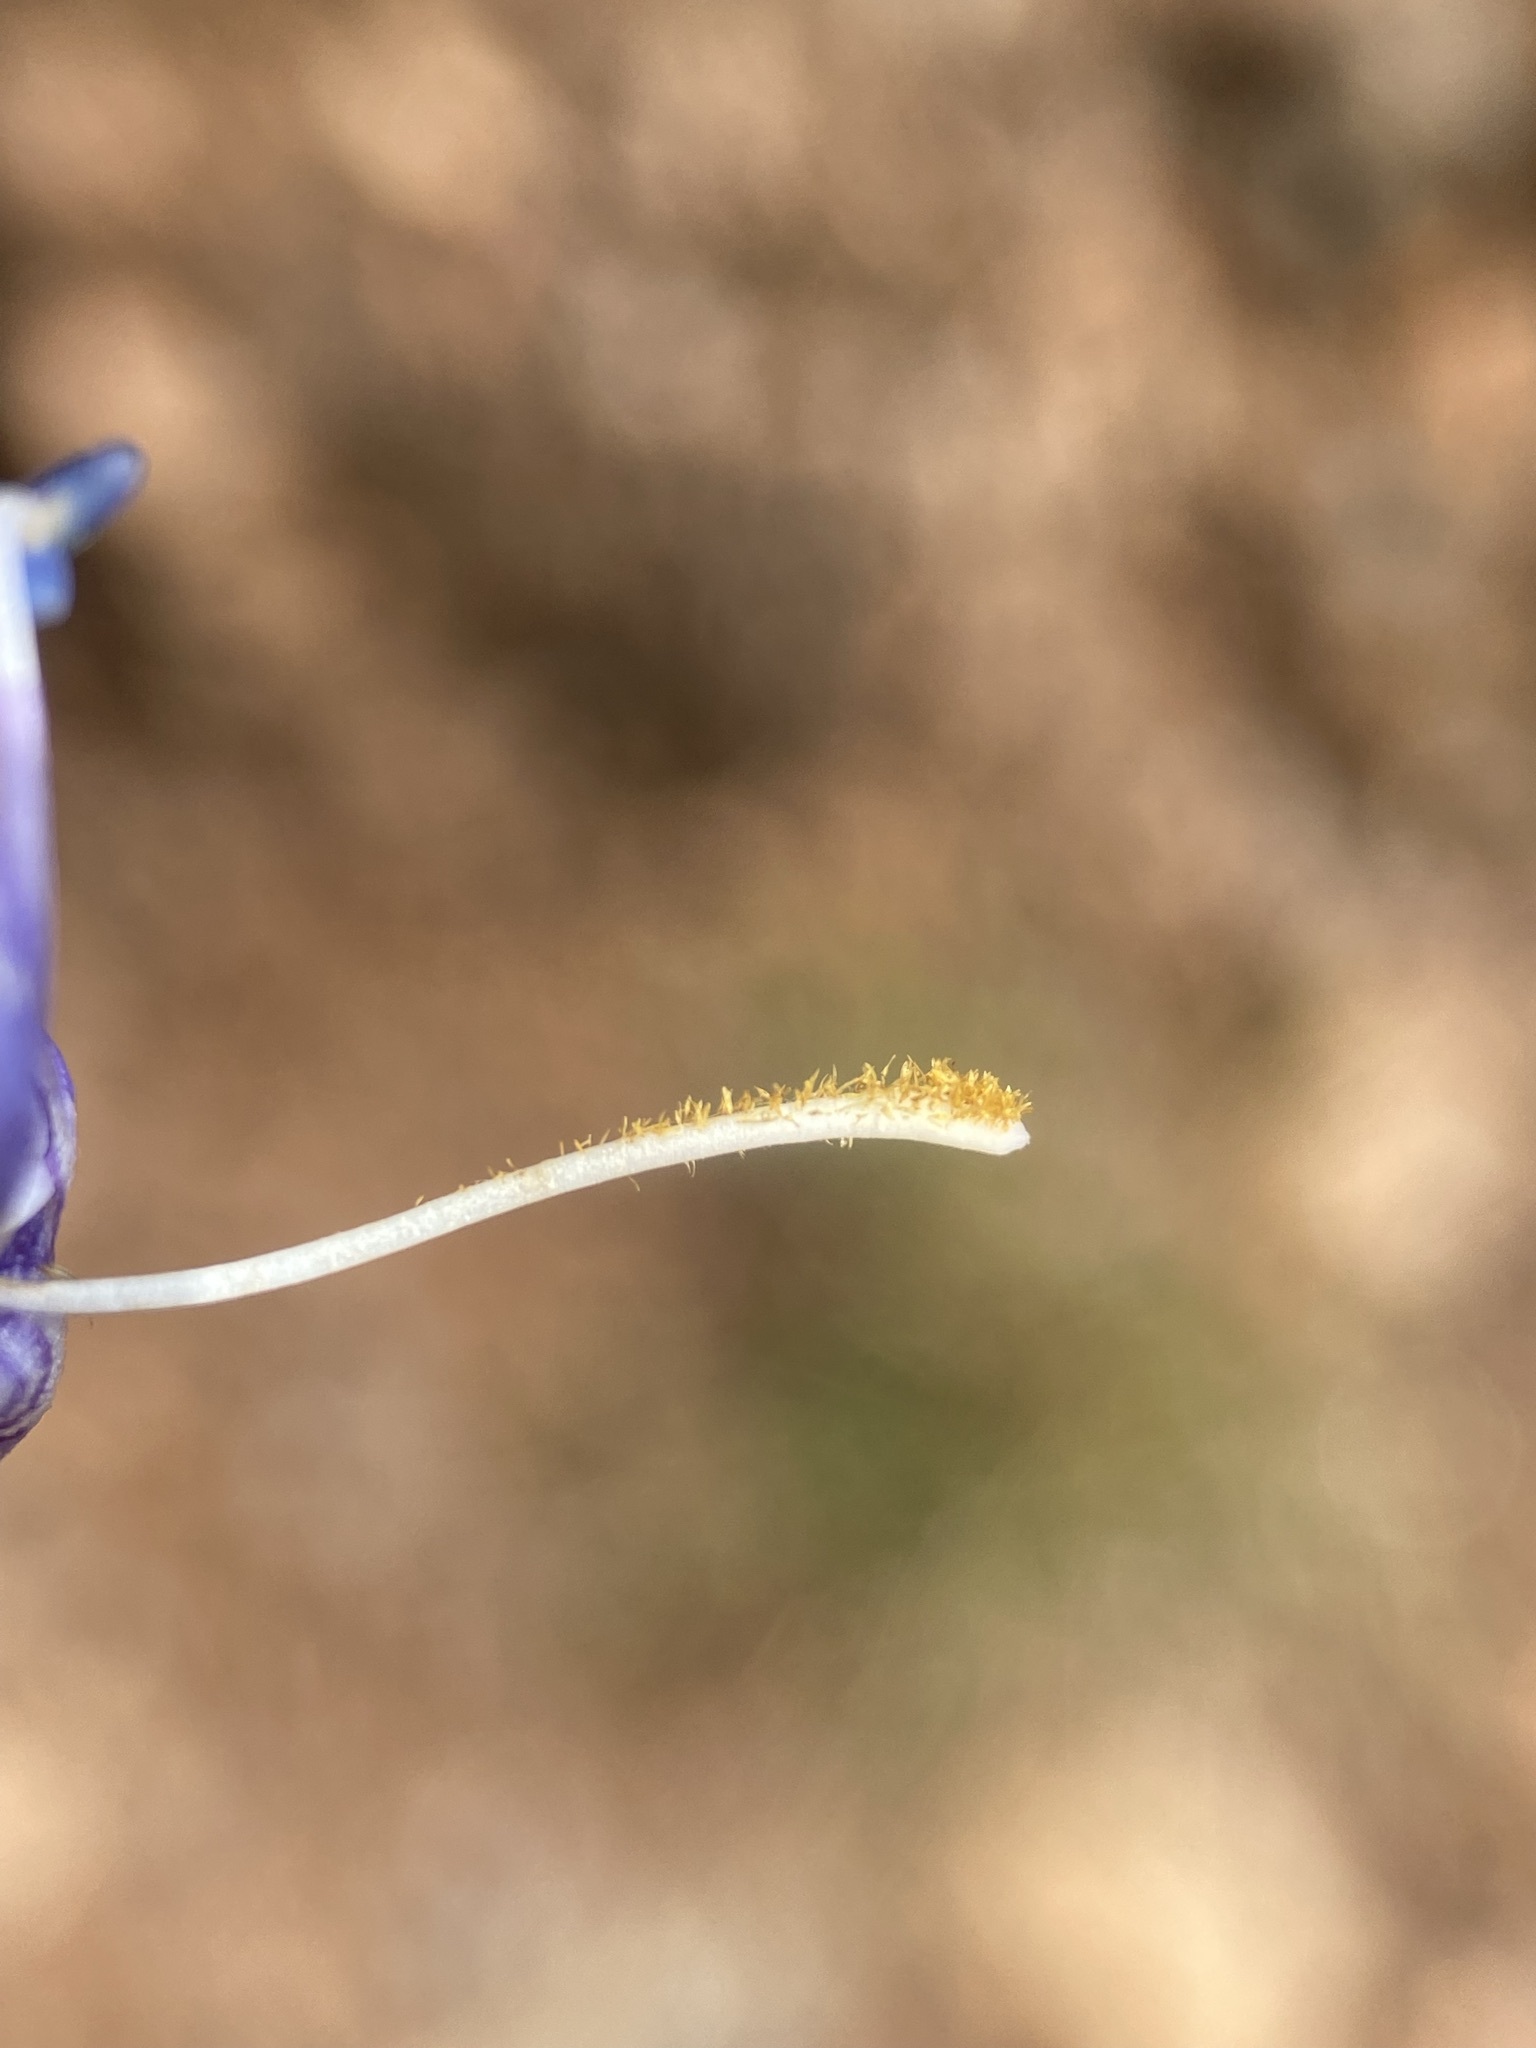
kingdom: Plantae
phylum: Tracheophyta
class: Magnoliopsida
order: Lamiales
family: Plantaginaceae
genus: Penstemon
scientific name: Penstemon hallii
